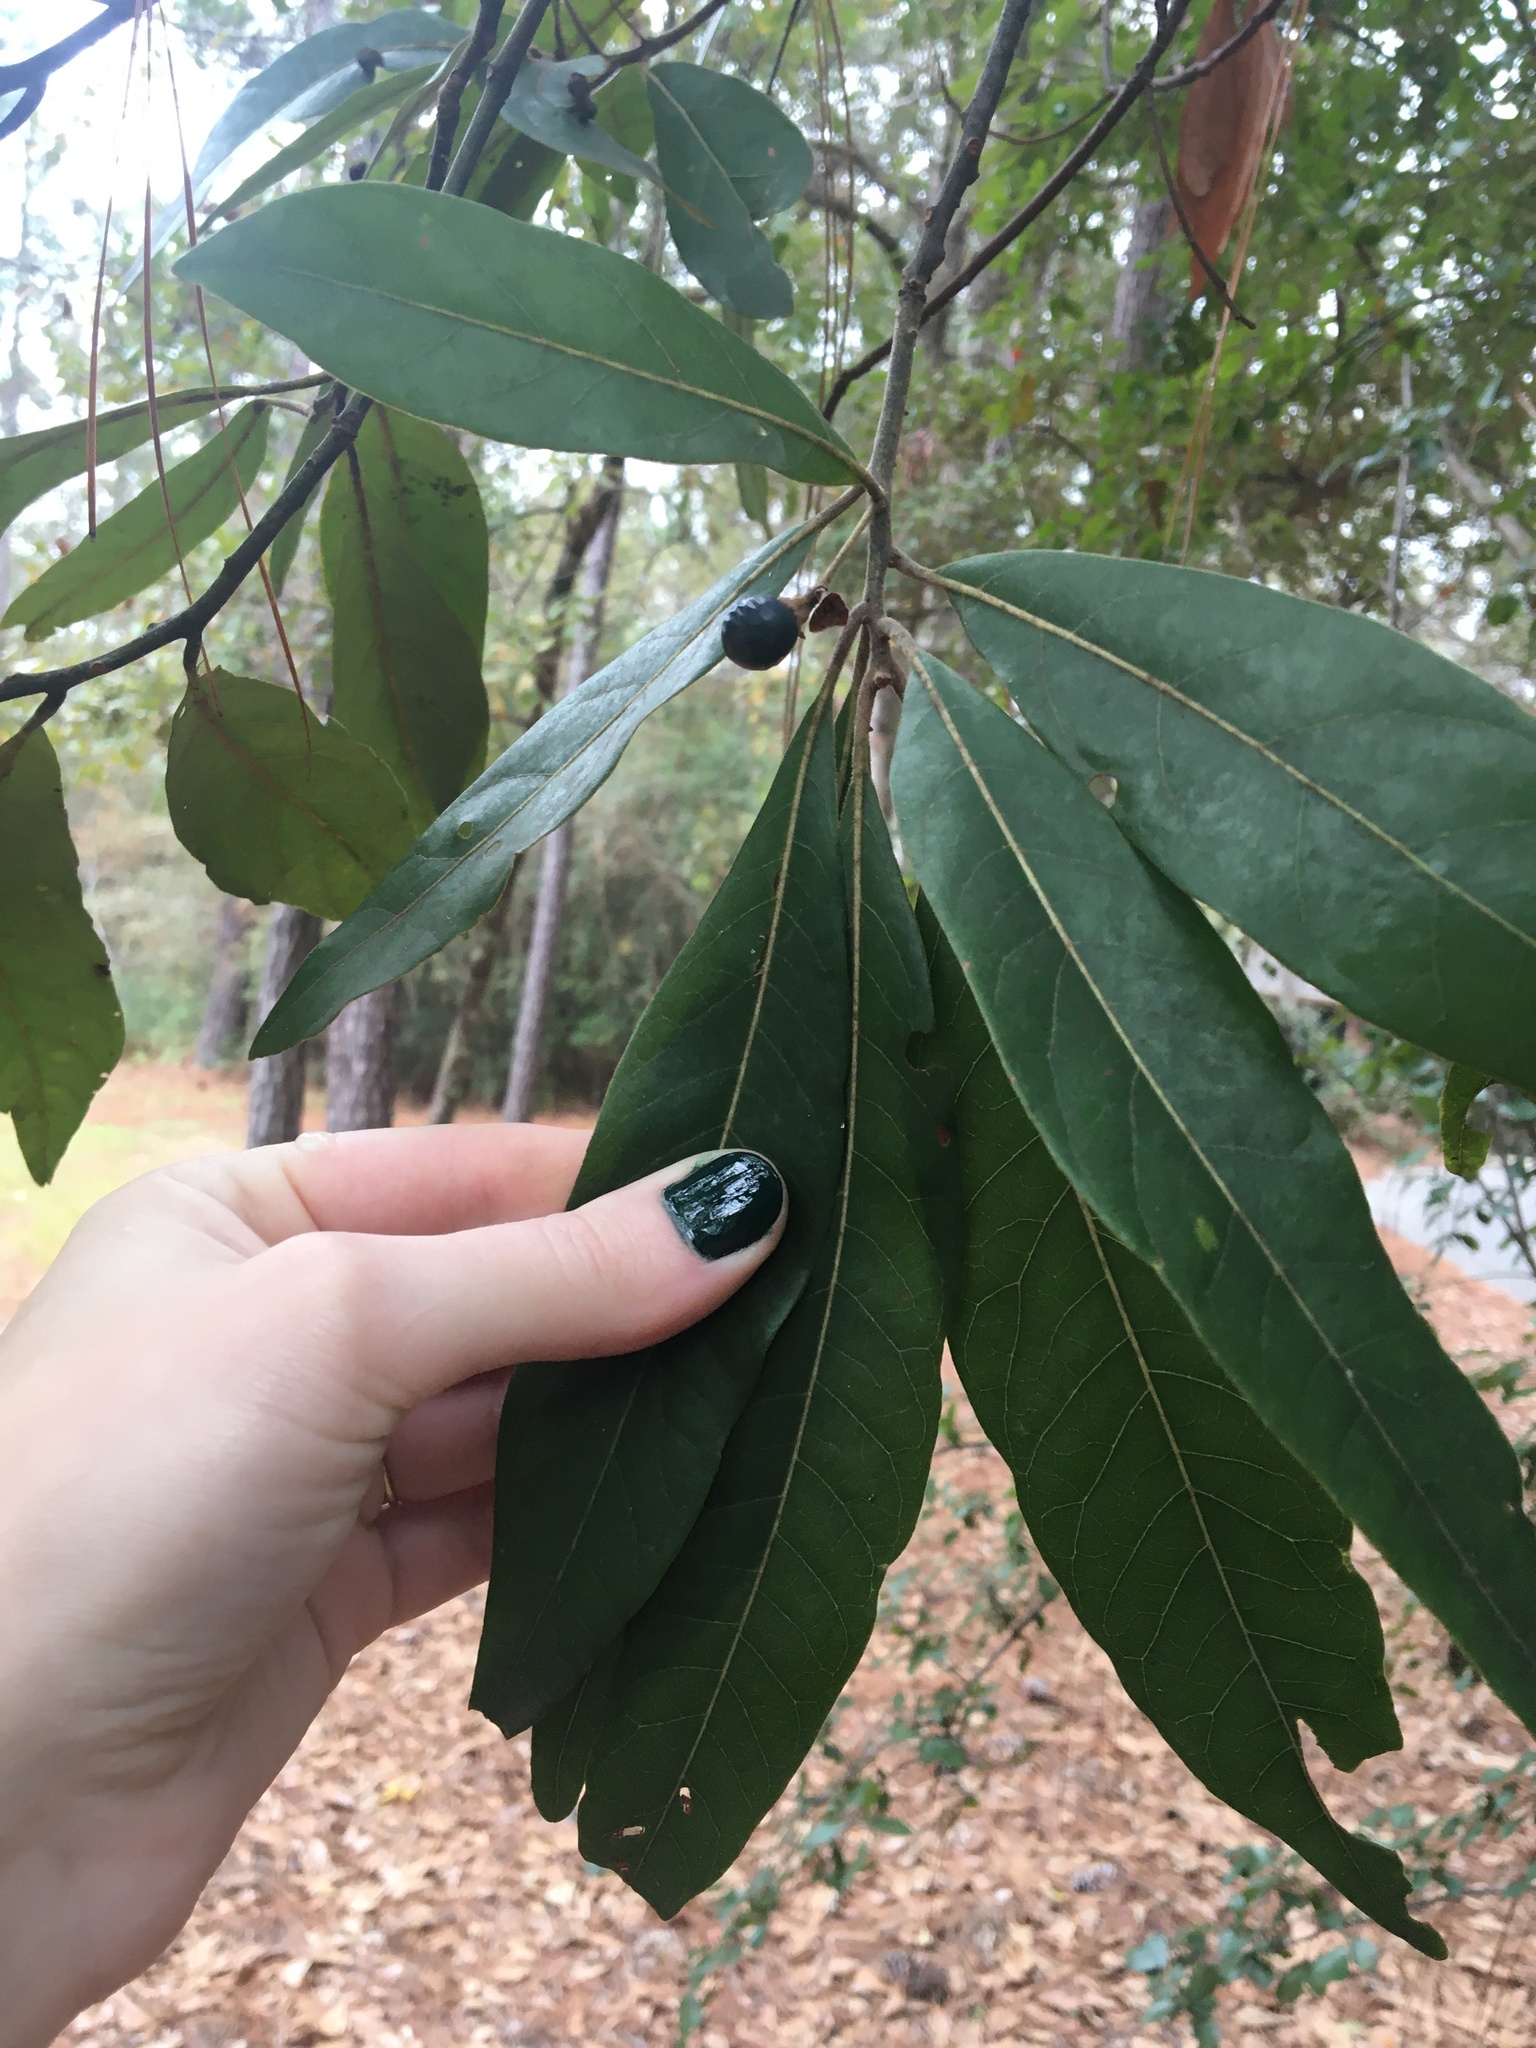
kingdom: Plantae
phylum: Tracheophyta
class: Magnoliopsida
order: Laurales
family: Lauraceae
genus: Persea
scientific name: Persea palustris
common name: Swampbay
